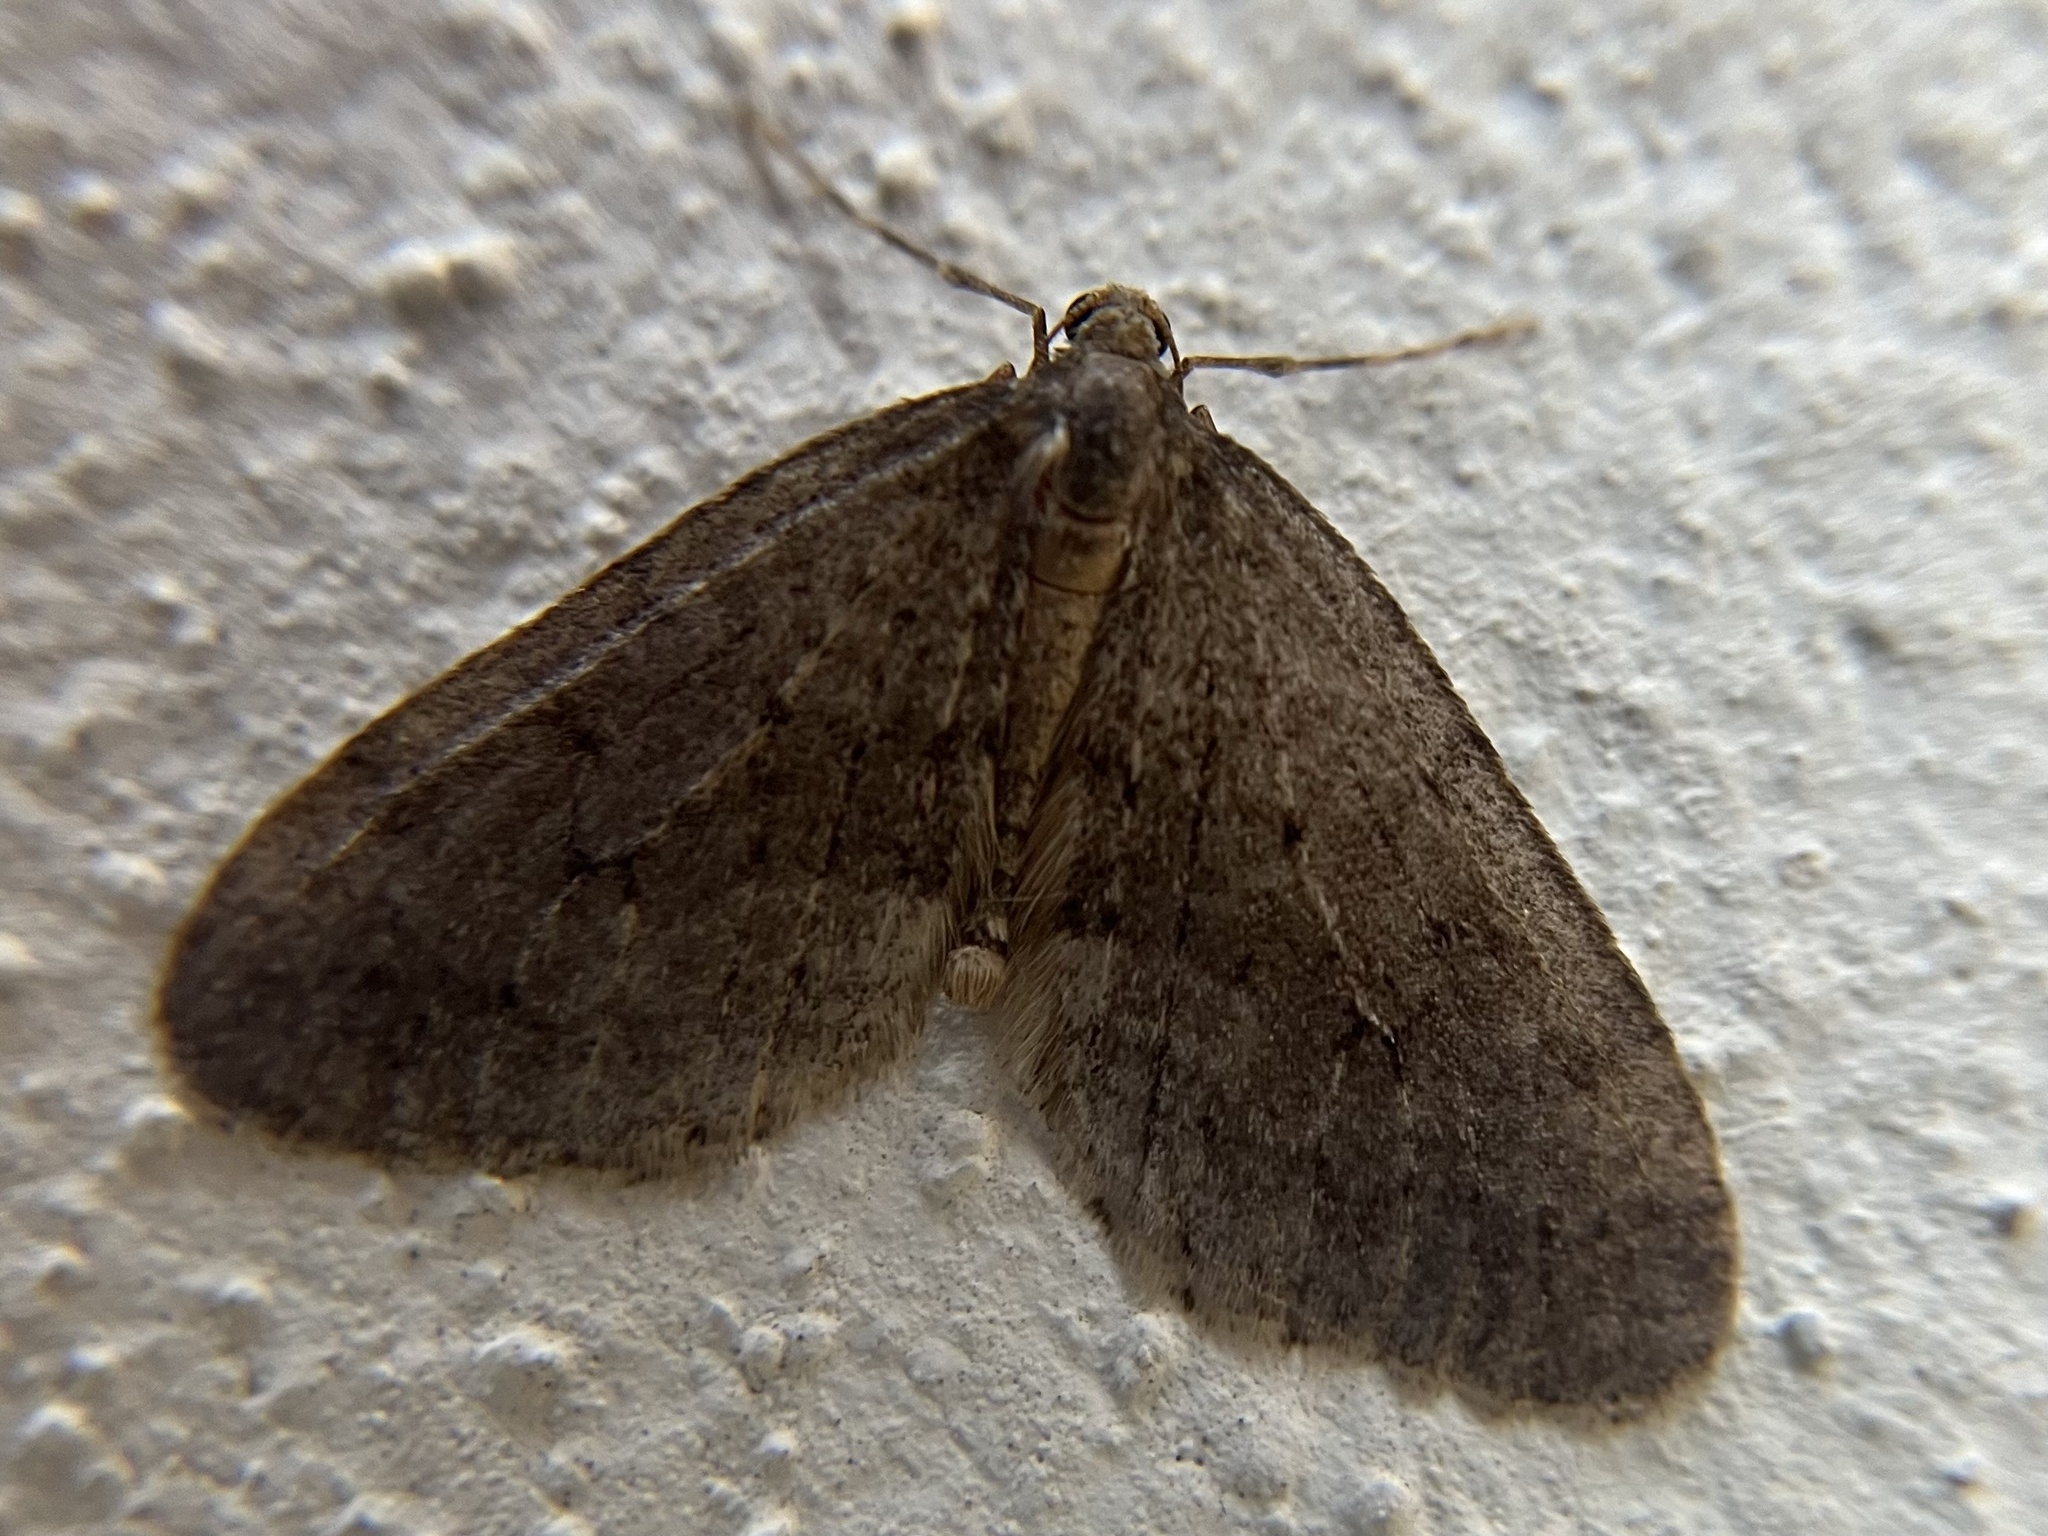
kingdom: Animalia
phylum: Arthropoda
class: Insecta
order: Lepidoptera
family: Geometridae
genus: Operophtera
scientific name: Operophtera brumata
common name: Winter moth
